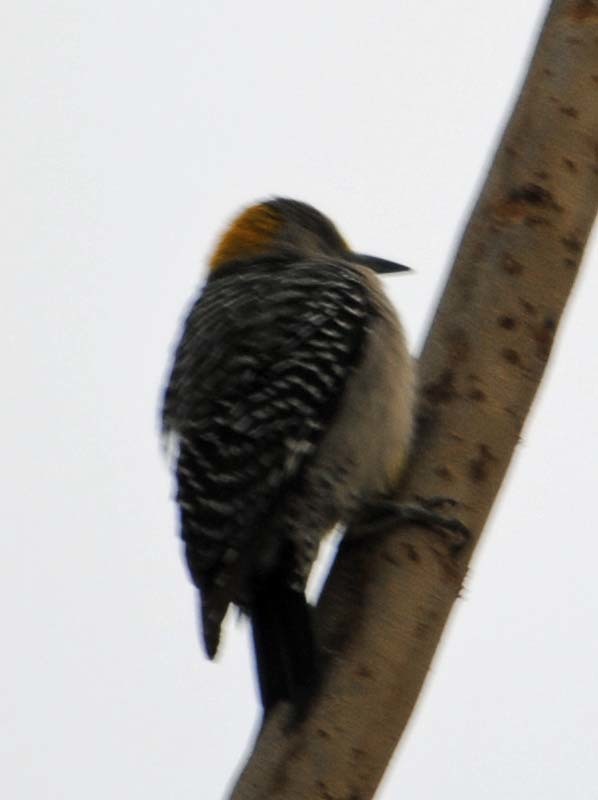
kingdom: Animalia
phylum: Chordata
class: Aves
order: Piciformes
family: Picidae
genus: Melanerpes
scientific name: Melanerpes aurifrons
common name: Golden-fronted woodpecker
